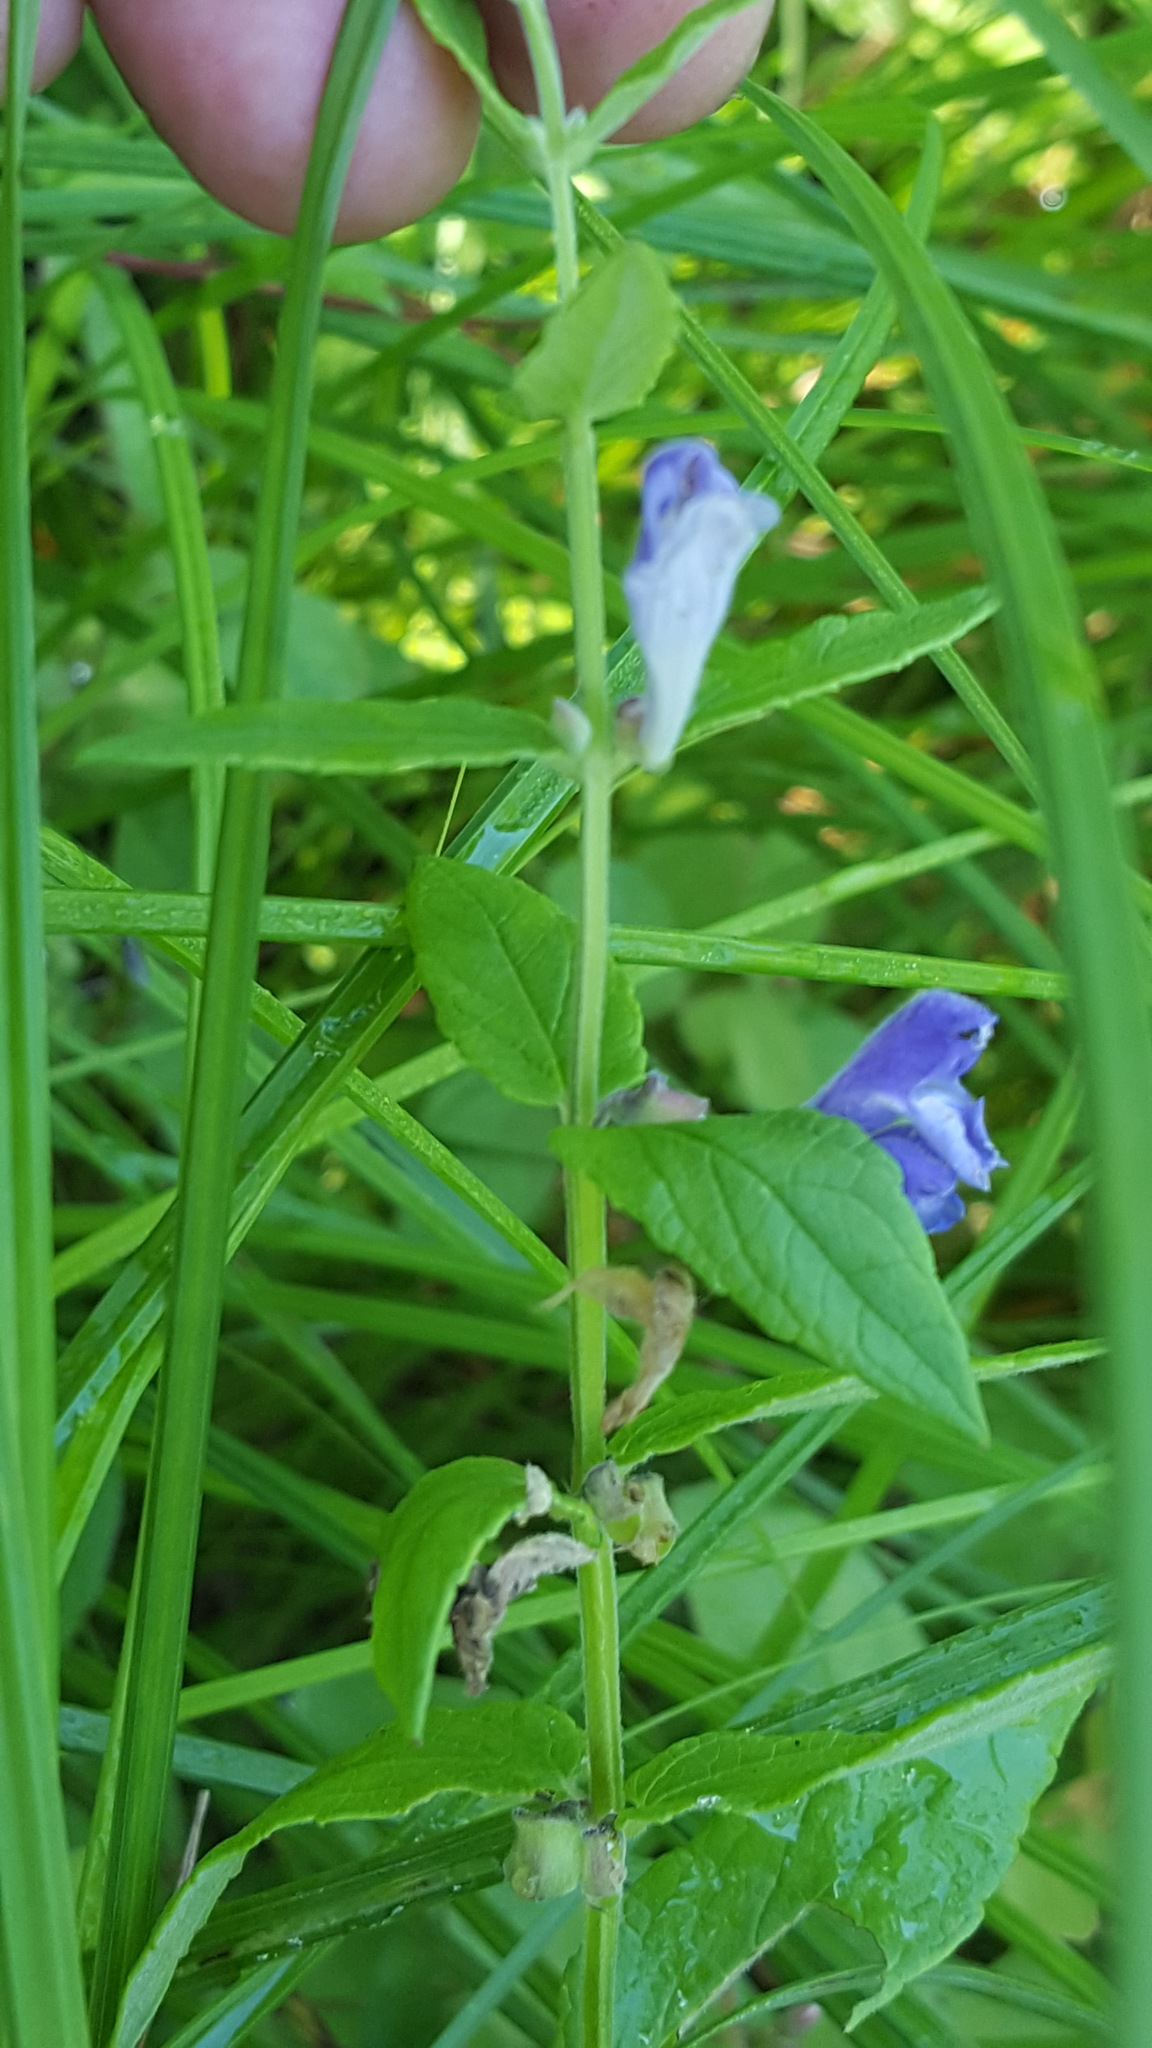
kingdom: Plantae
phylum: Tracheophyta
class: Magnoliopsida
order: Lamiales
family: Lamiaceae
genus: Scutellaria
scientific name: Scutellaria galericulata
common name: Skullcap
